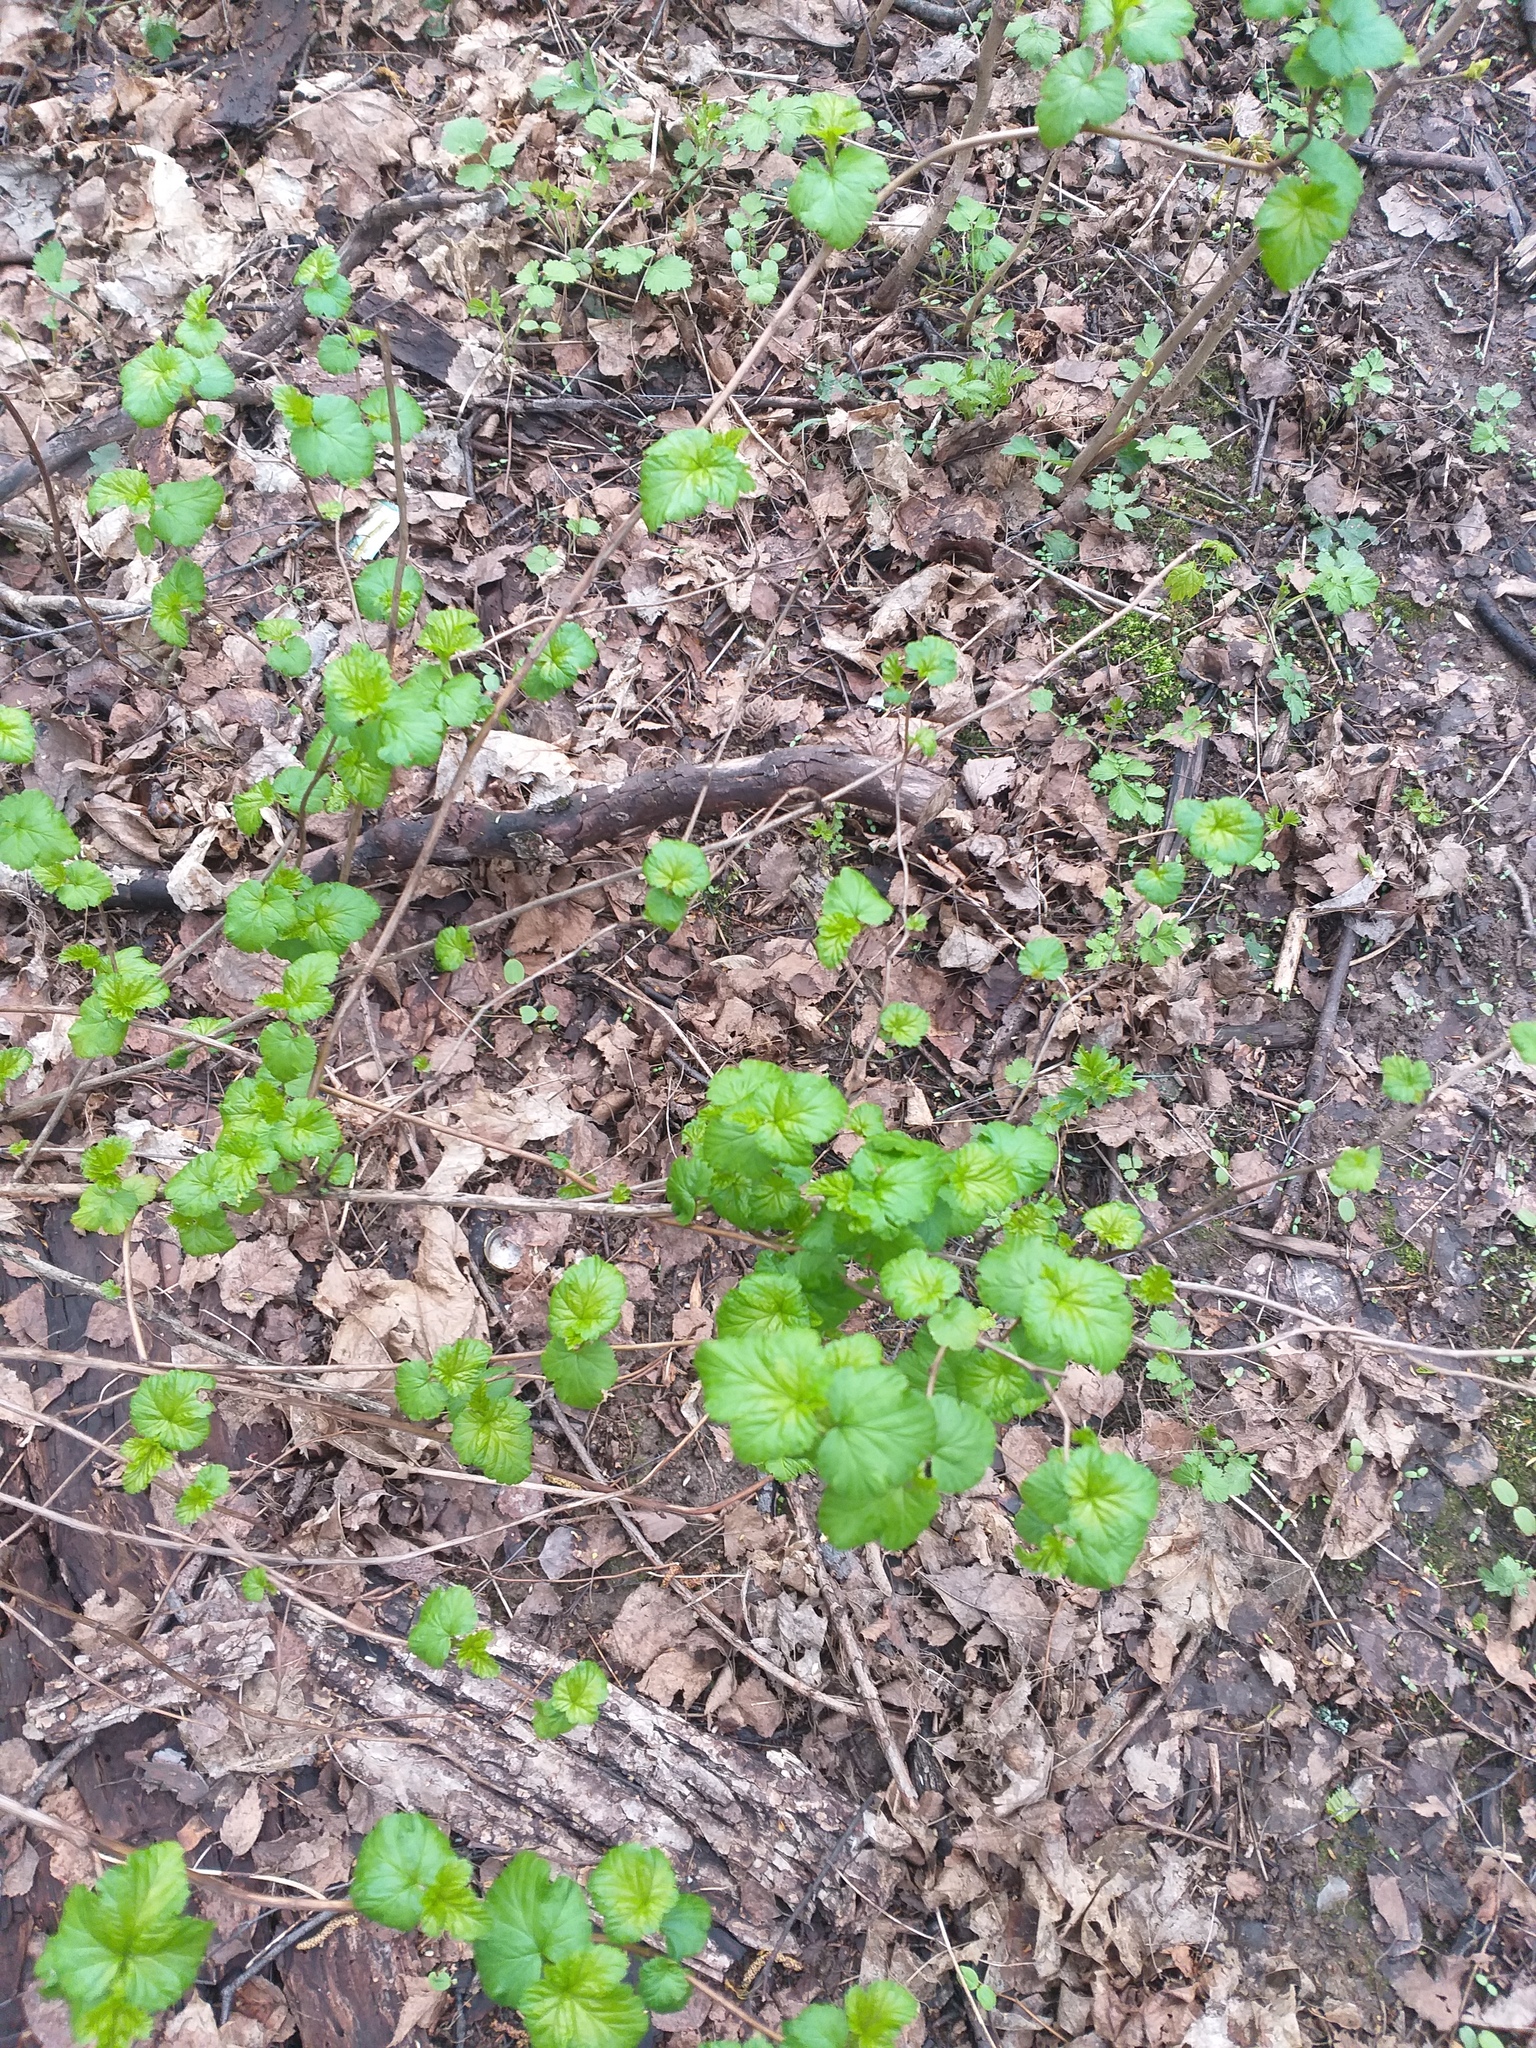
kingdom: Plantae
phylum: Tracheophyta
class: Magnoliopsida
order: Rosales
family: Rosaceae
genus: Physocarpus
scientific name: Physocarpus opulifolius
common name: Ninebark
